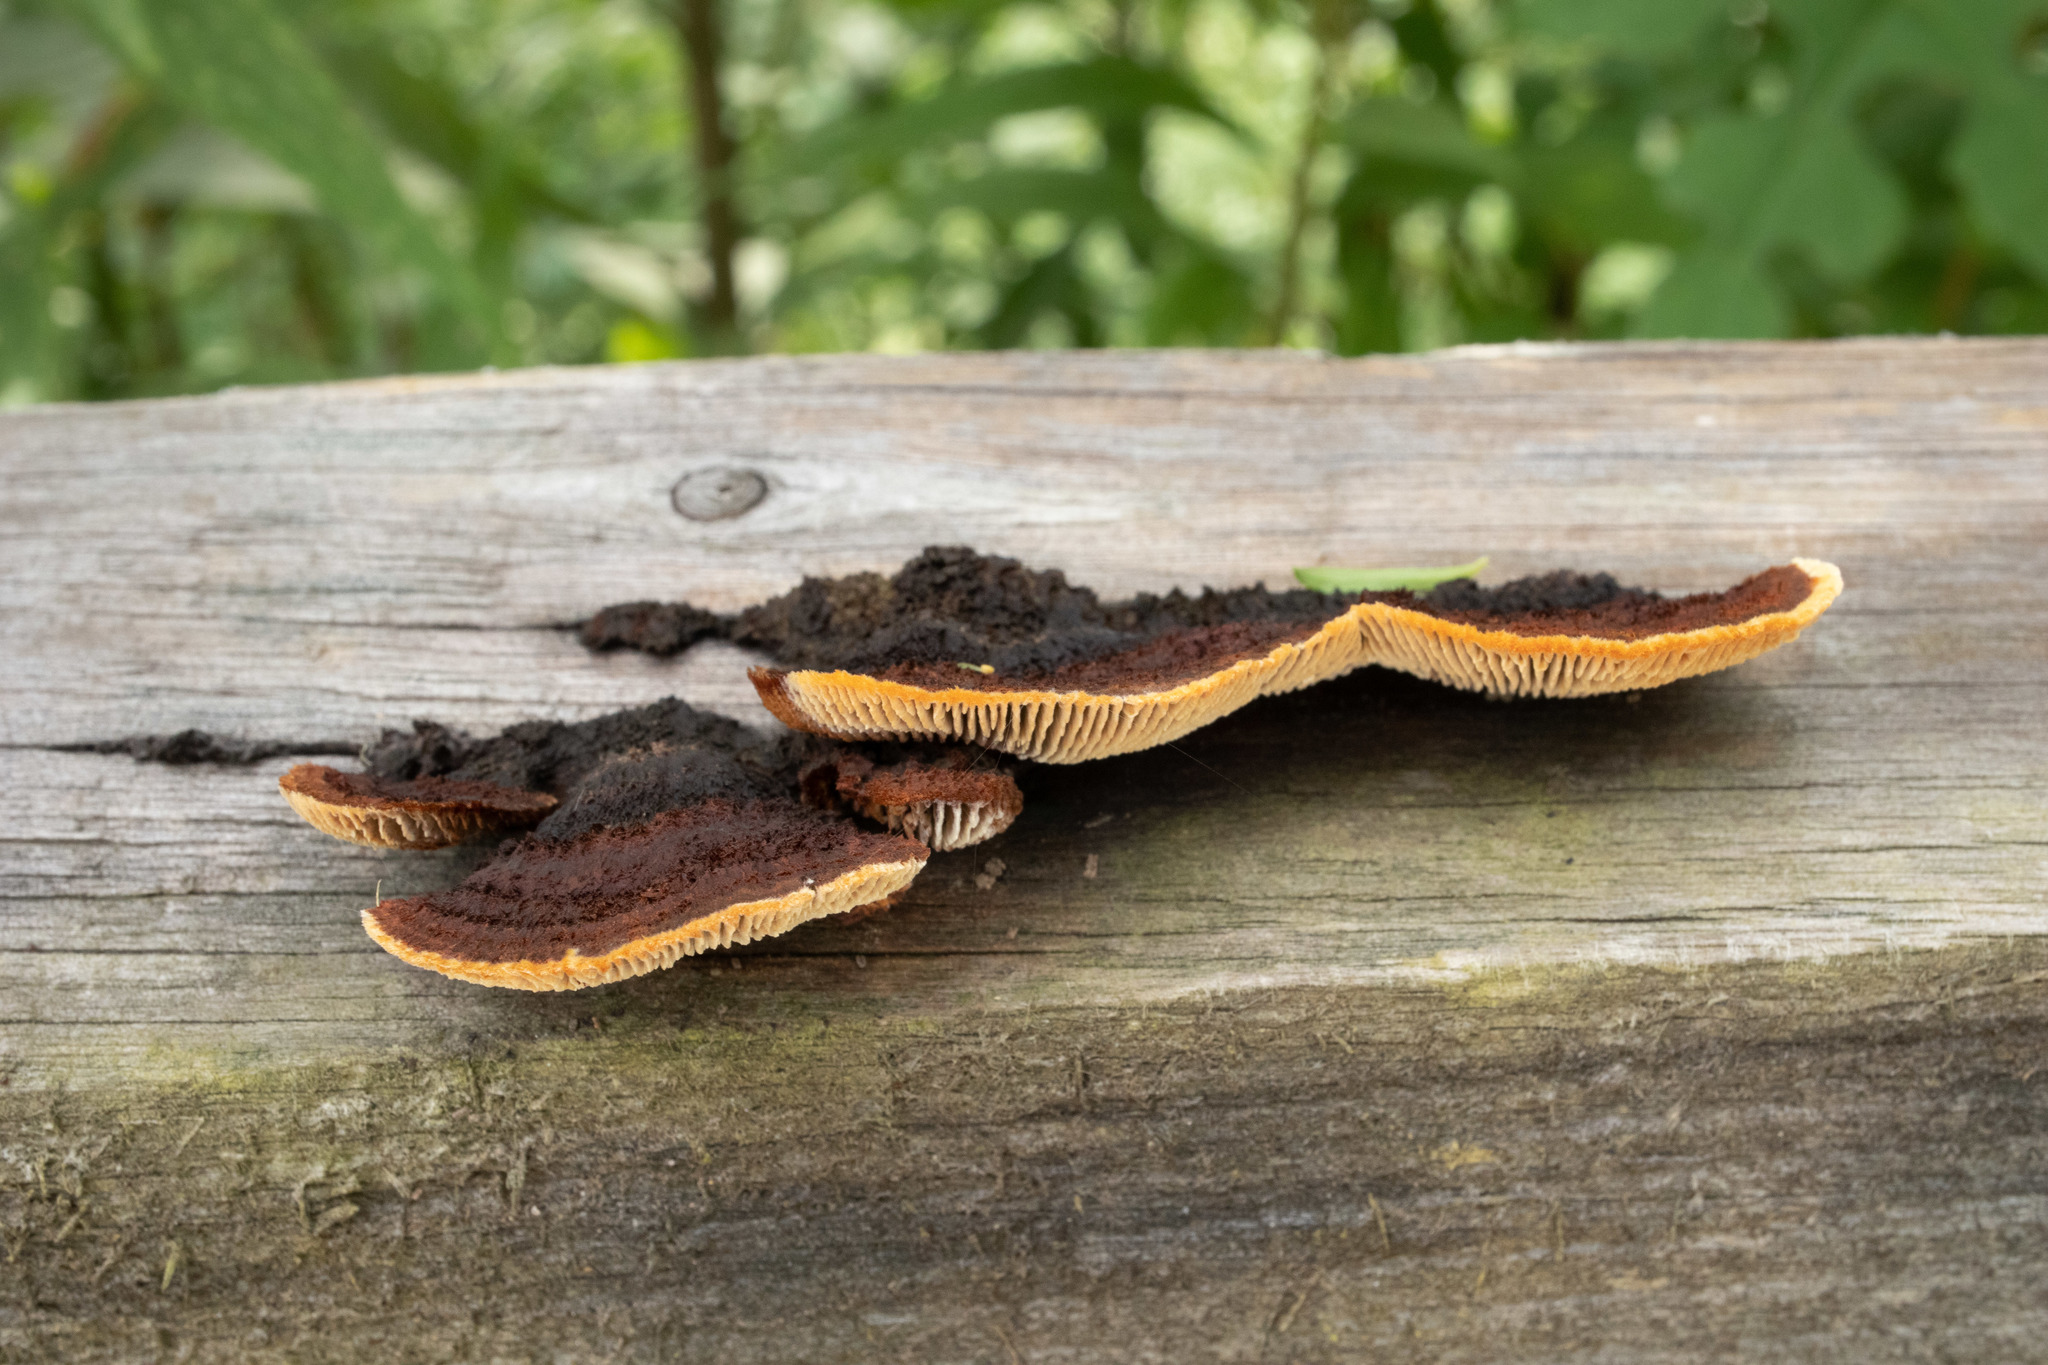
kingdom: Fungi
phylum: Basidiomycota
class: Agaricomycetes
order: Gloeophyllales
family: Gloeophyllaceae
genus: Gloeophyllum
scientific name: Gloeophyllum sepiarium
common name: Conifer mazegill
